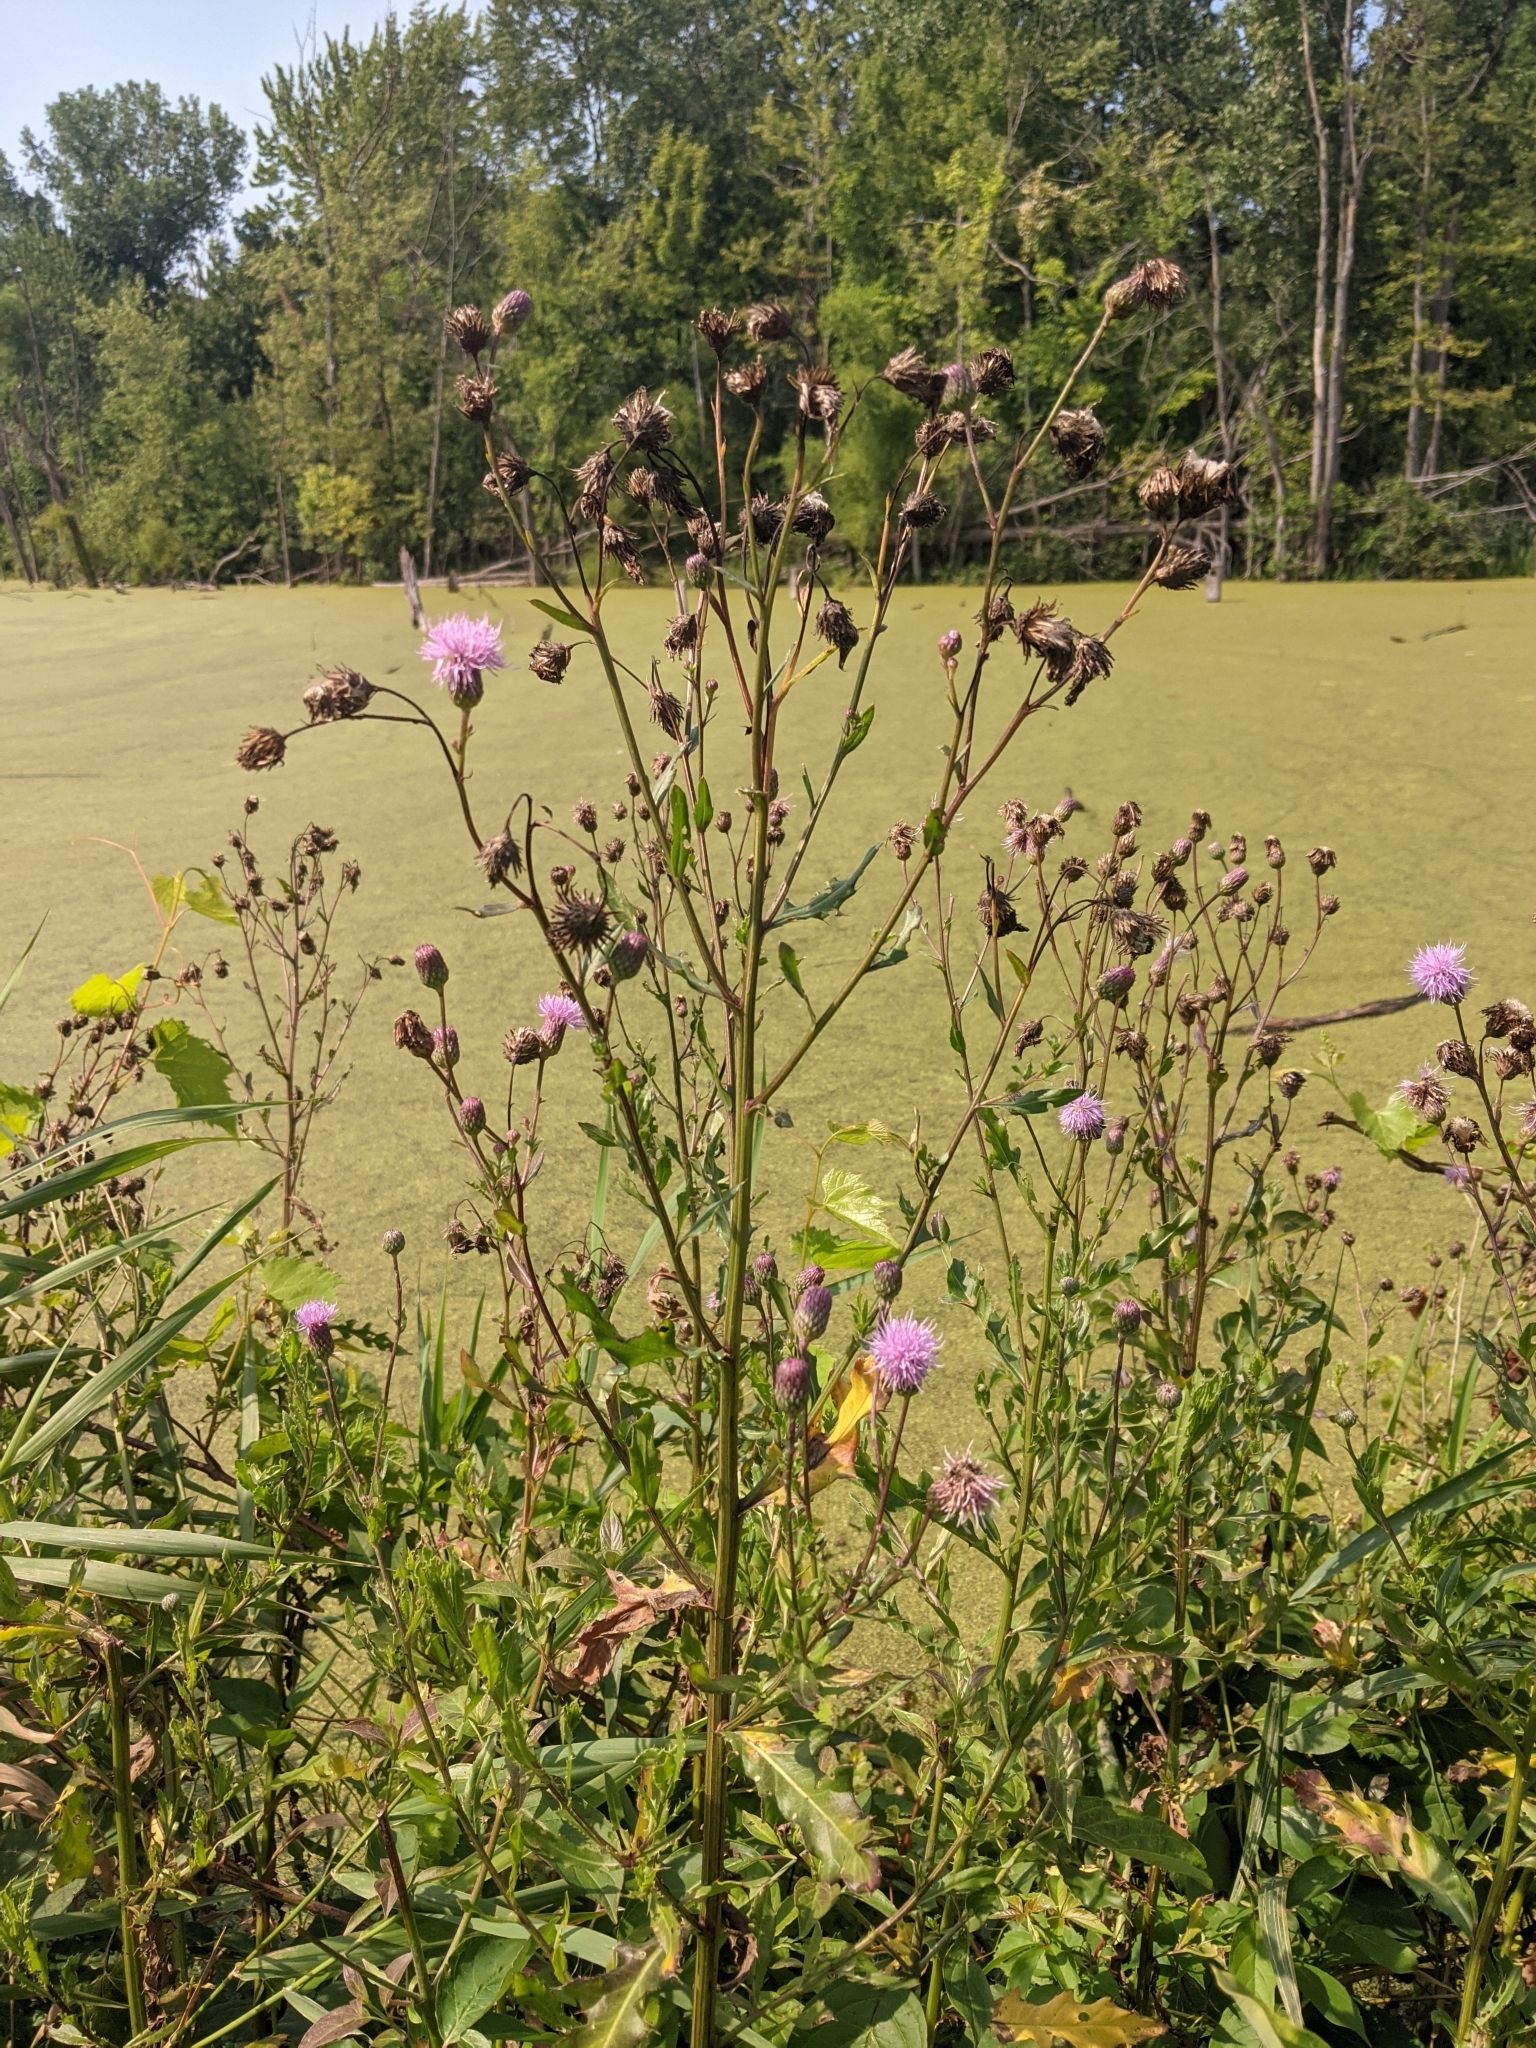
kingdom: Plantae
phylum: Tracheophyta
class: Magnoliopsida
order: Asterales
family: Asteraceae
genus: Cirsium
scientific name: Cirsium arvense
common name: Creeping thistle
